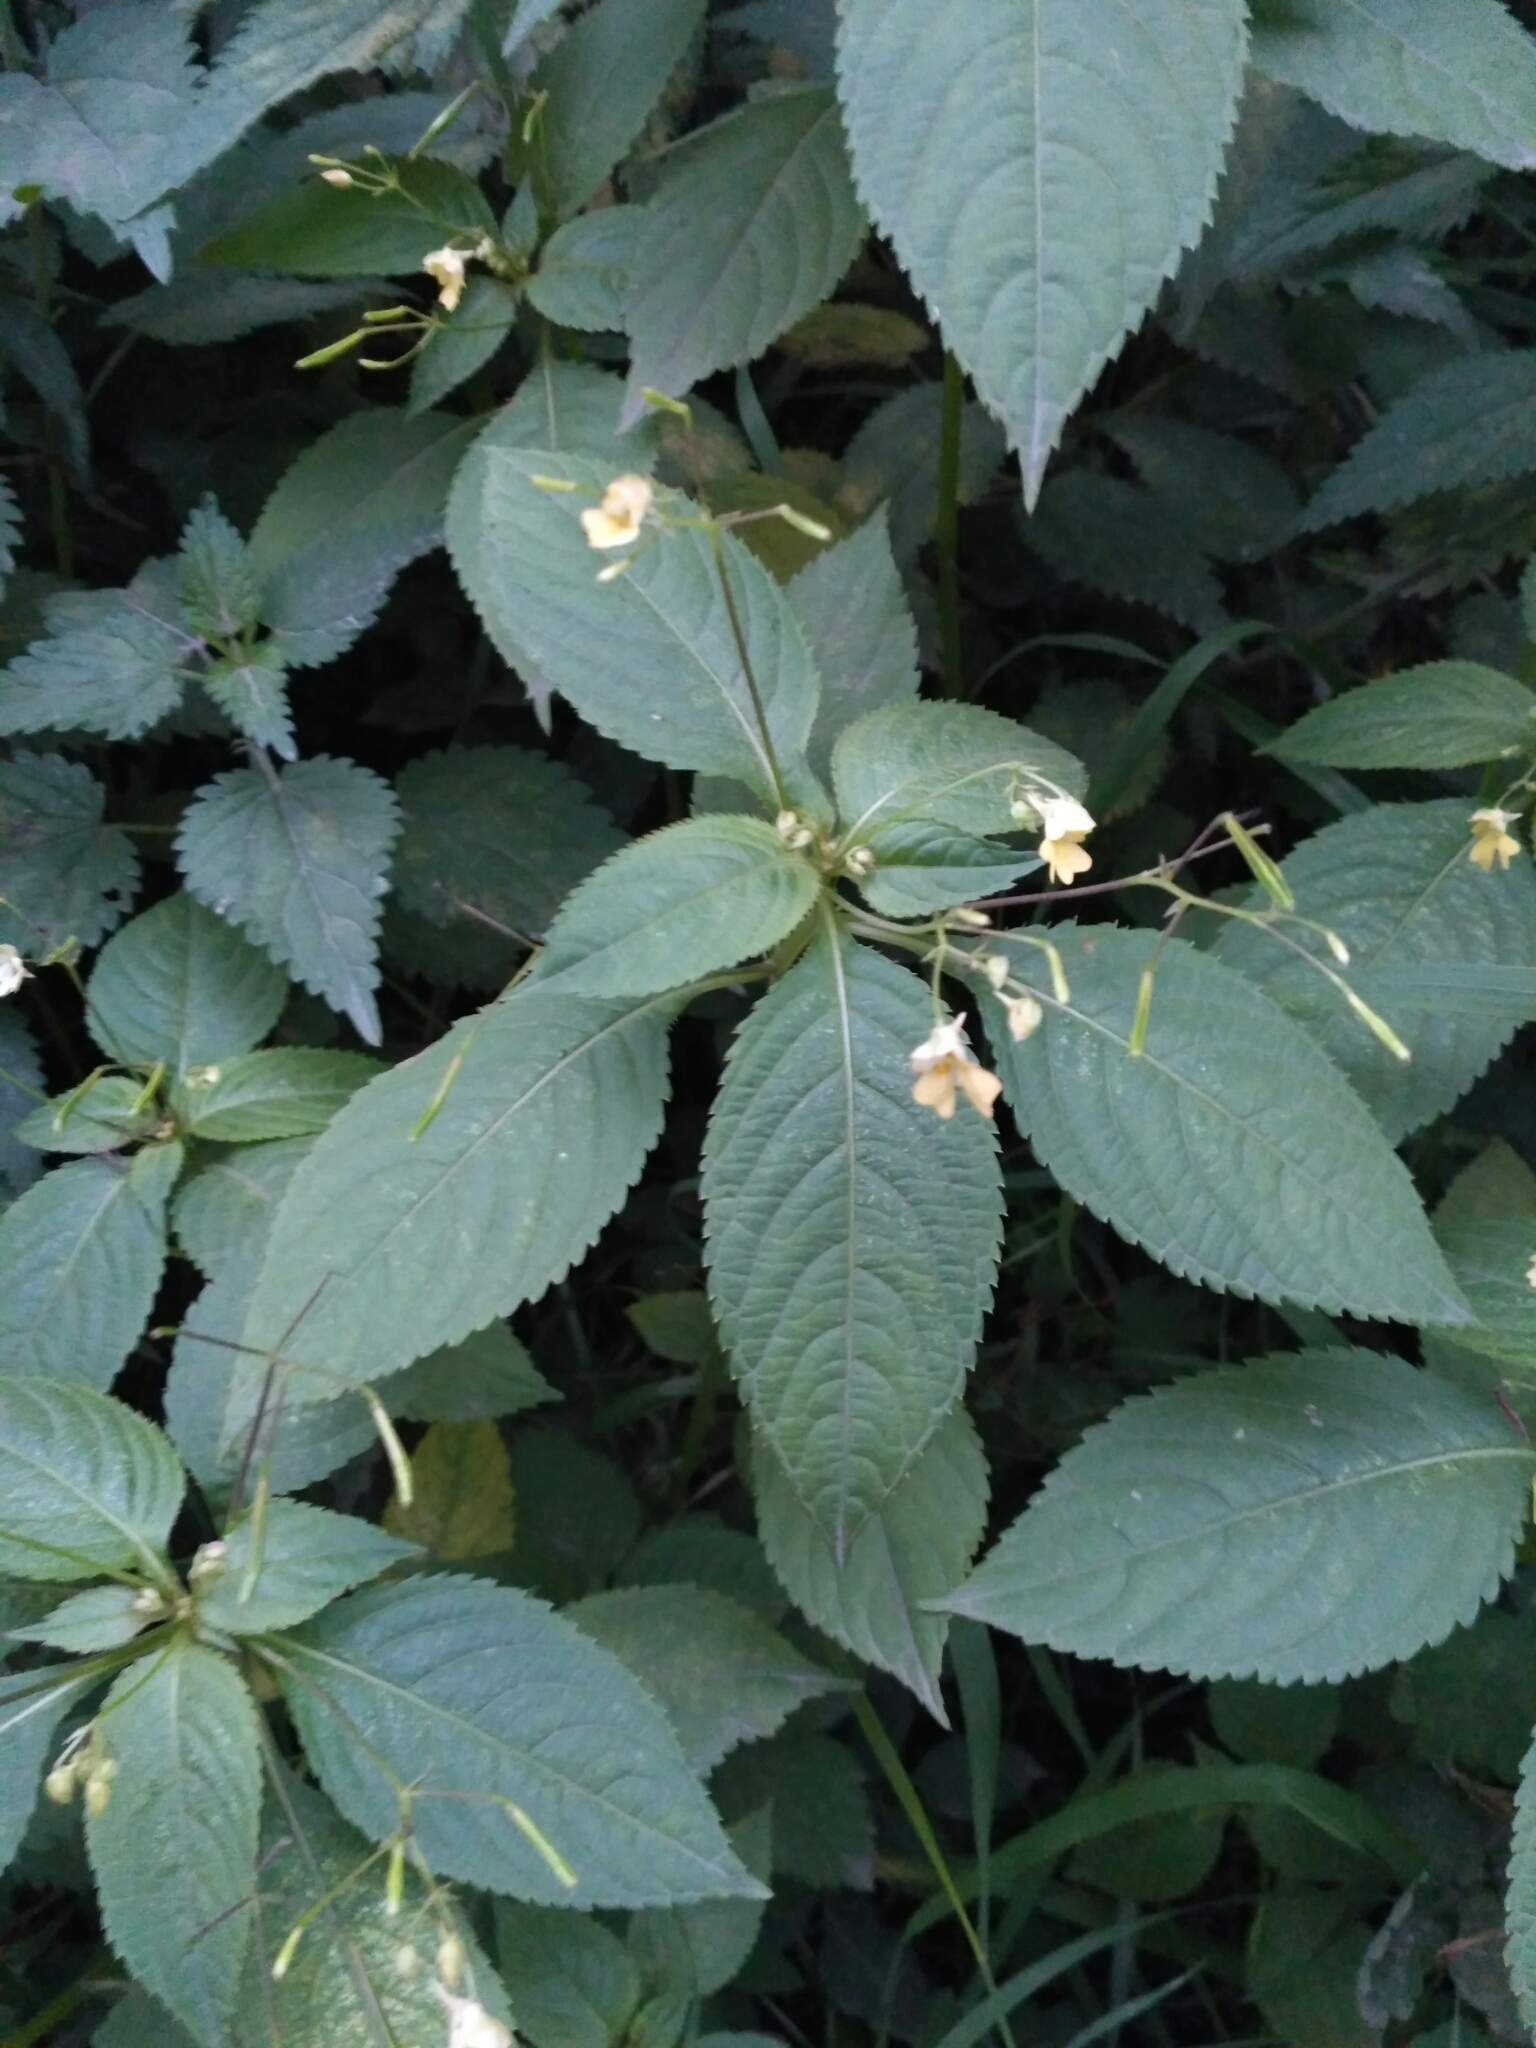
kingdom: Plantae
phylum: Tracheophyta
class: Magnoliopsida
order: Ericales
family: Balsaminaceae
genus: Impatiens
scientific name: Impatiens parviflora
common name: Small balsam
